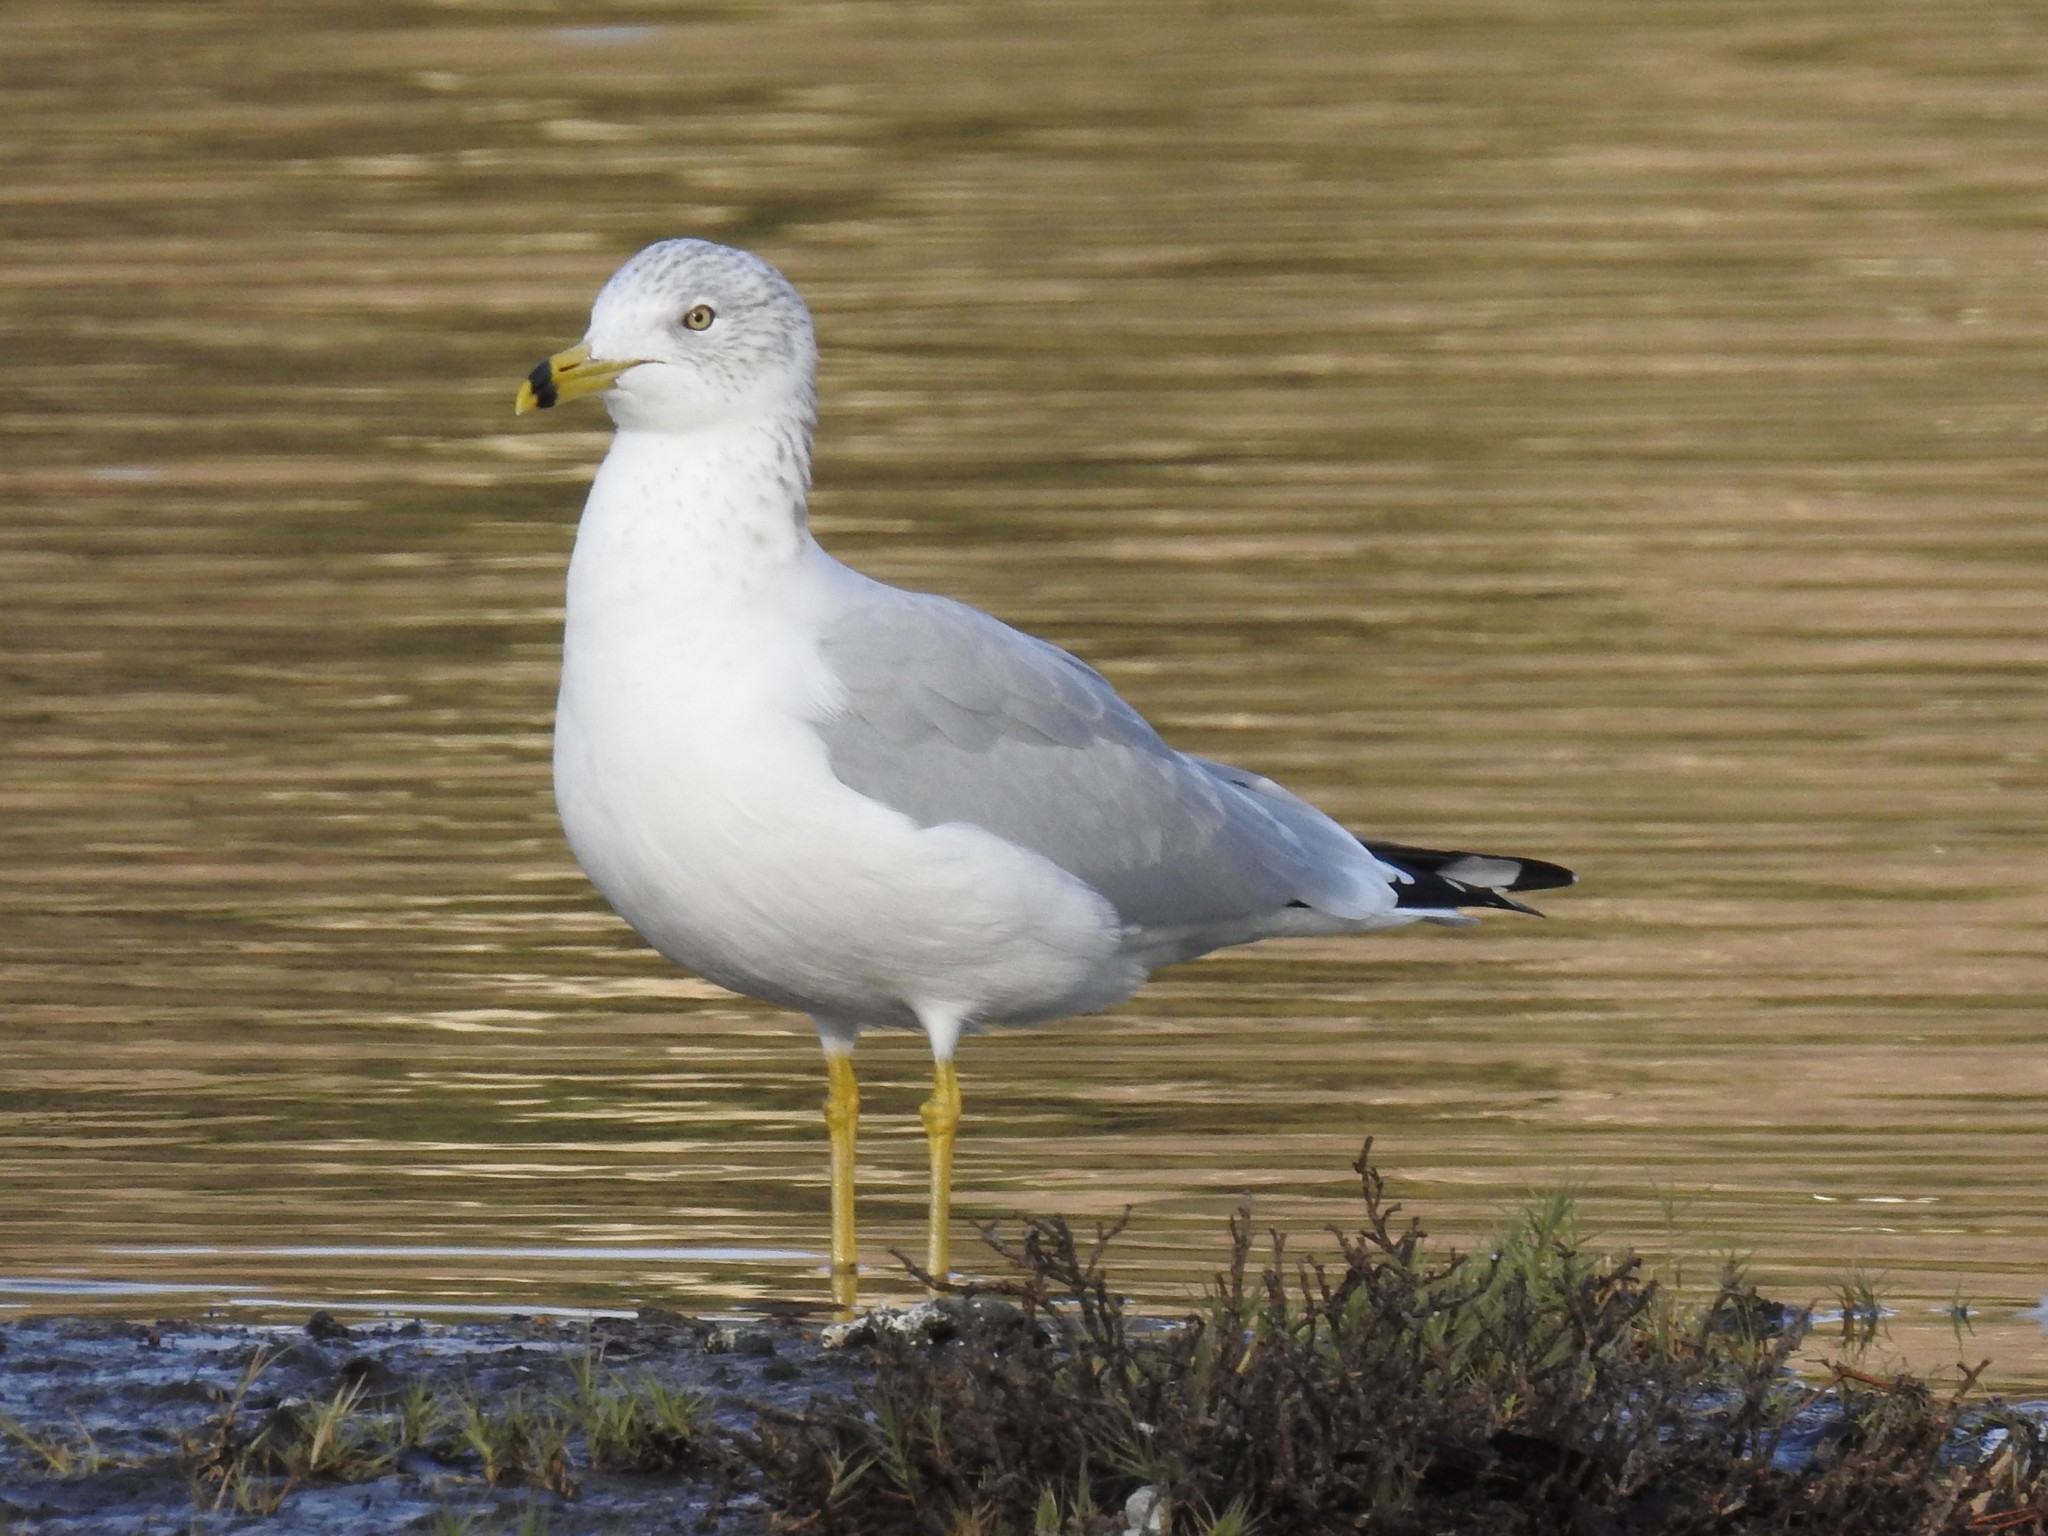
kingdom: Animalia
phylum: Chordata
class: Aves
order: Charadriiformes
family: Laridae
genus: Larus
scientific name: Larus delawarensis
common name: Ring-billed gull
